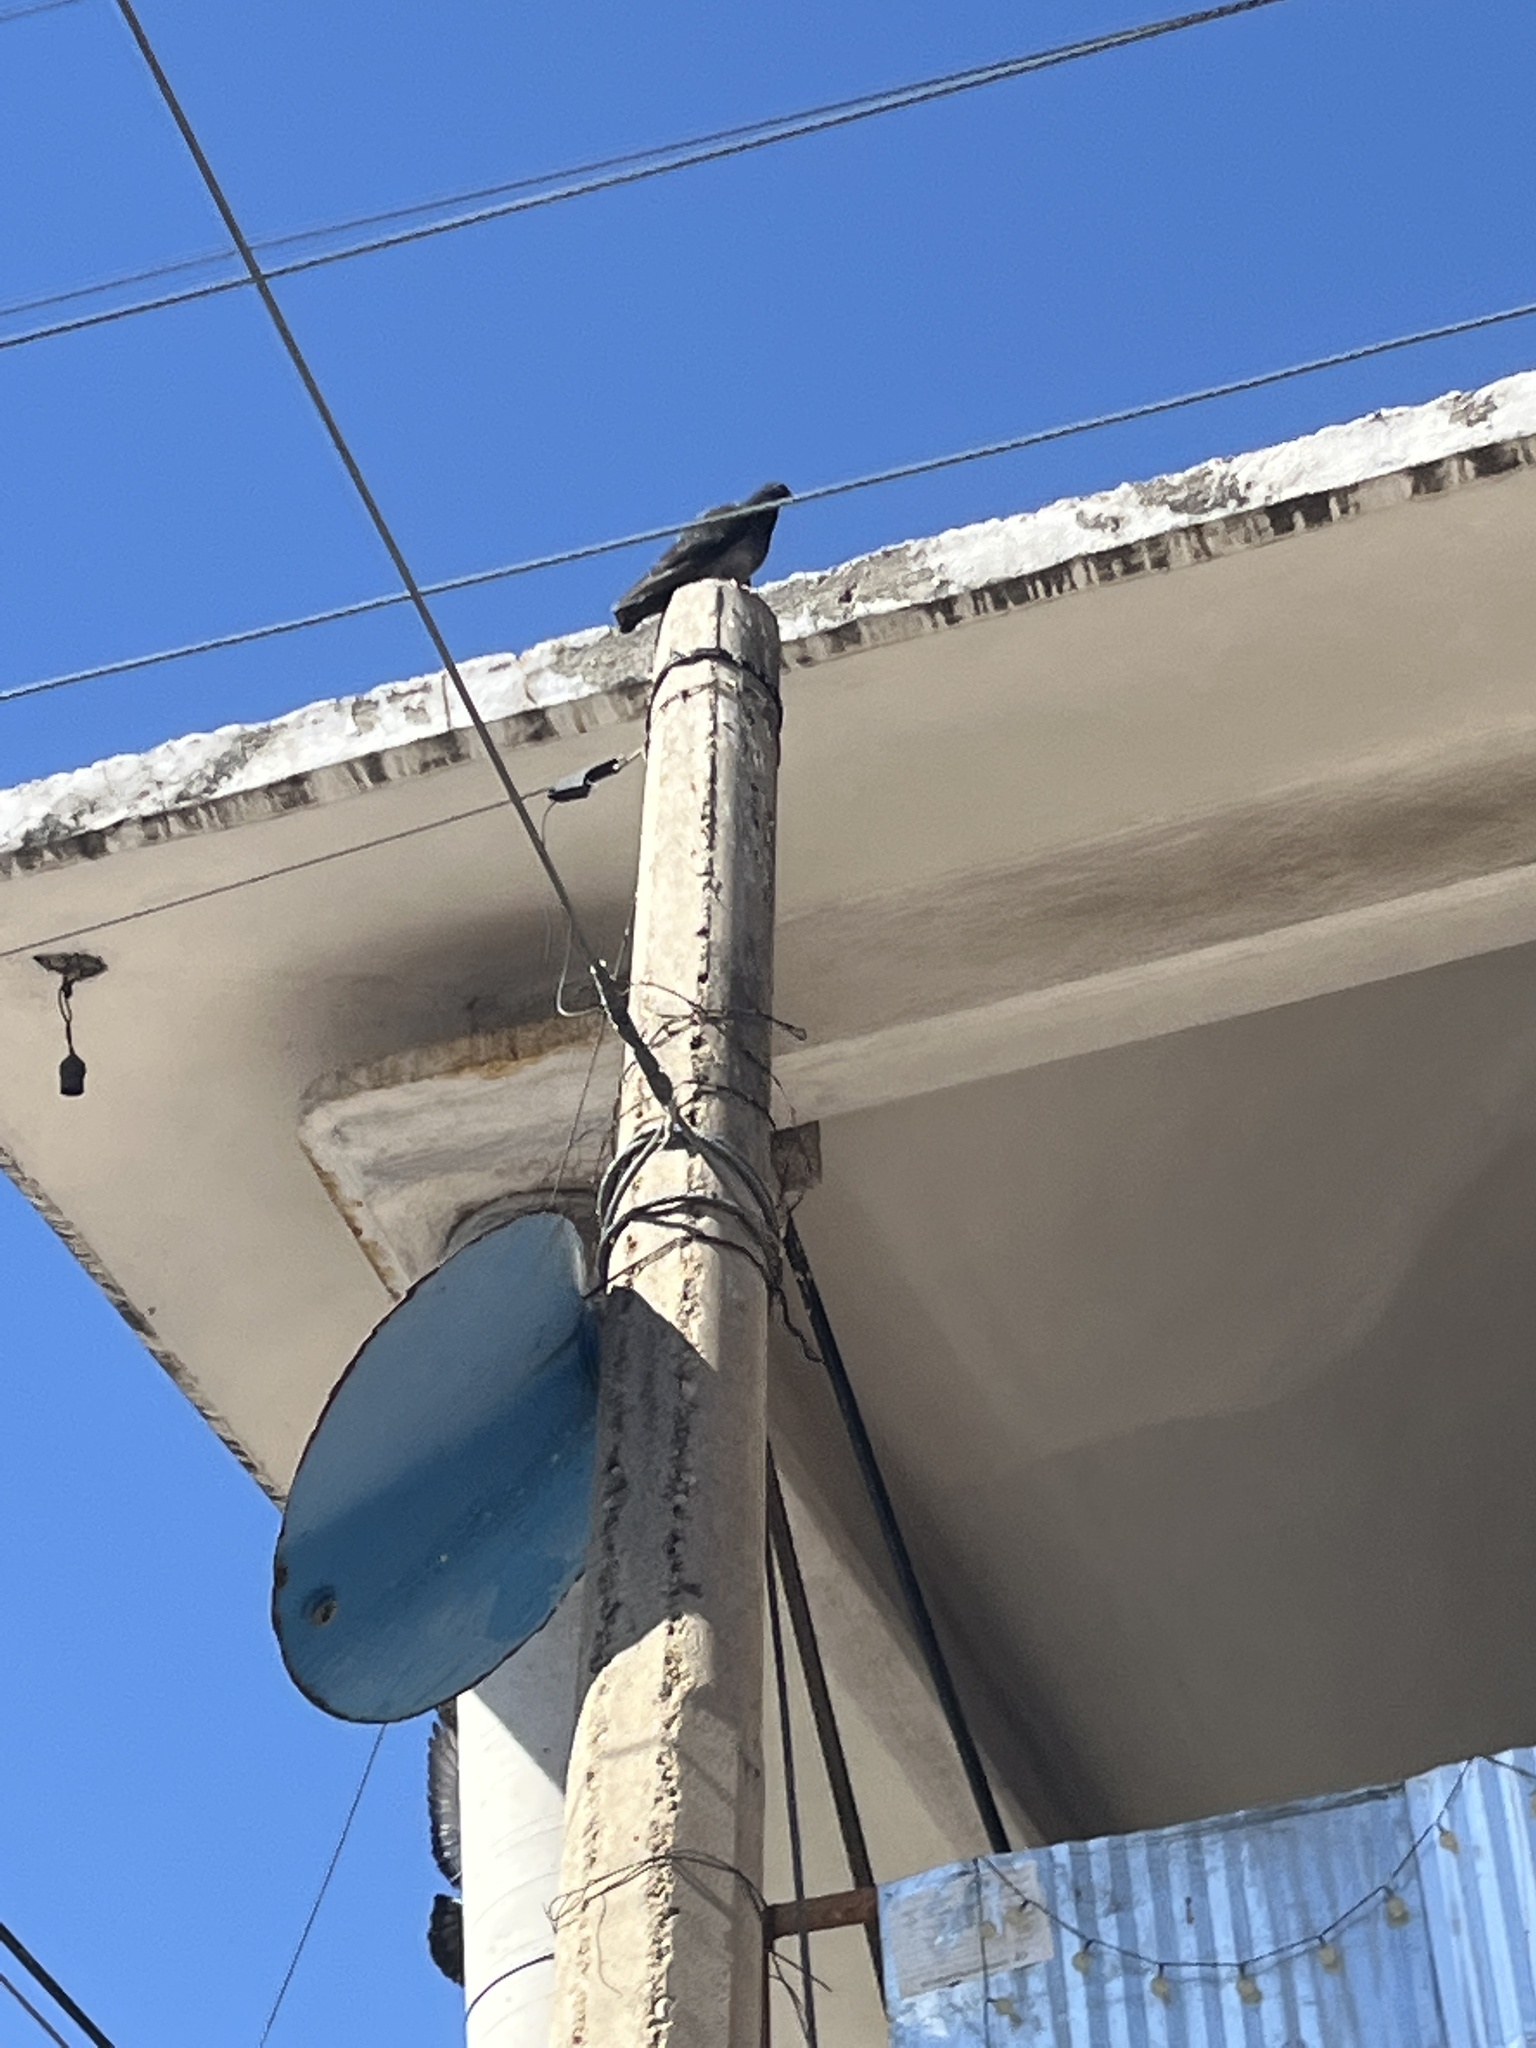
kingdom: Animalia
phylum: Chordata
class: Aves
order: Columbiformes
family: Columbidae
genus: Columba
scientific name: Columba livia
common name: Rock pigeon
